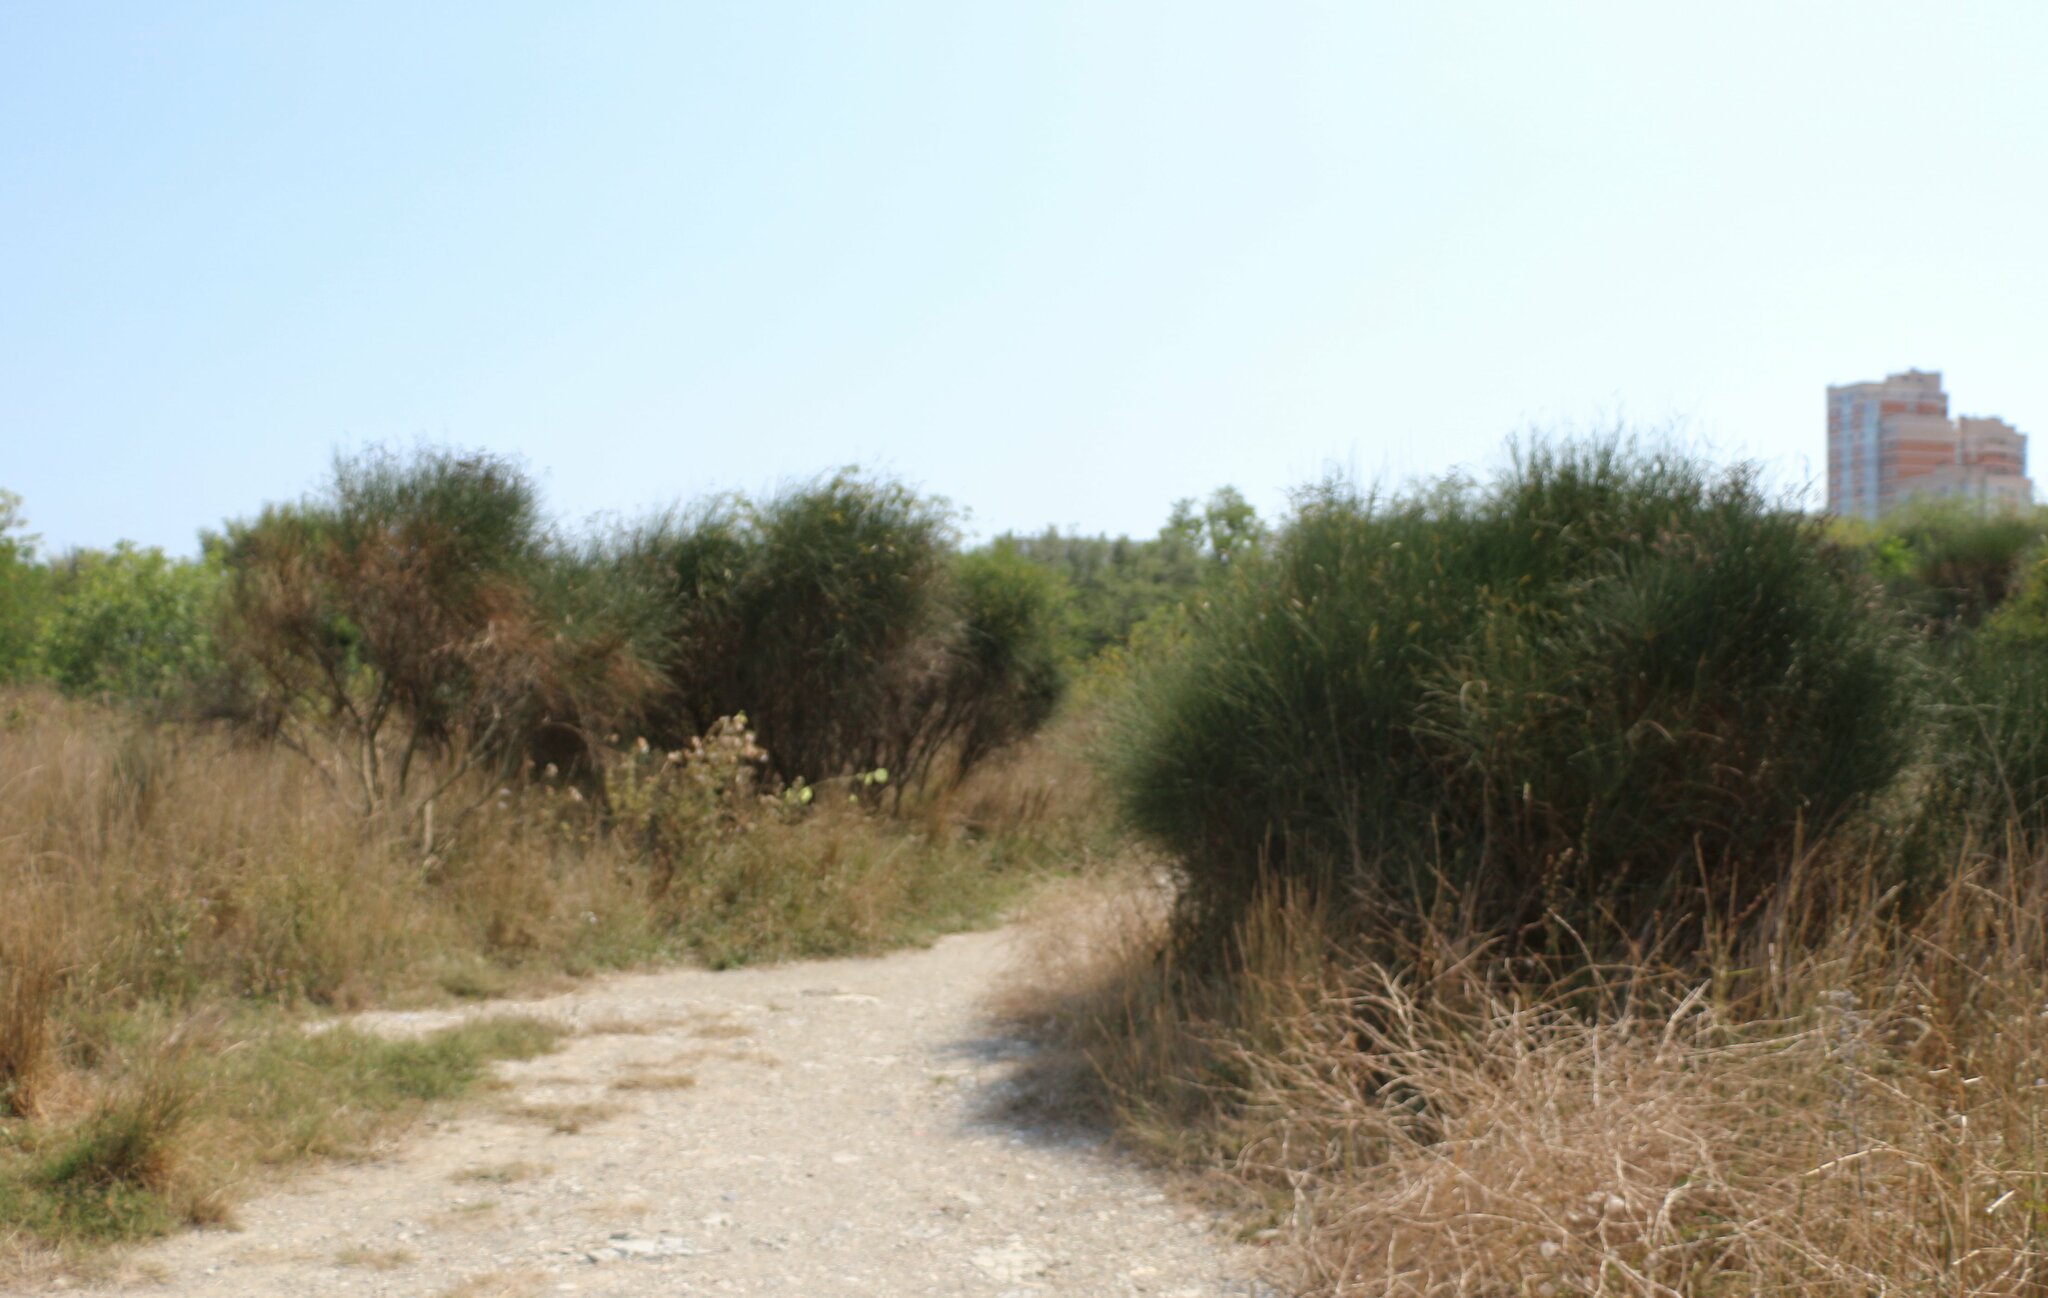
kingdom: Plantae
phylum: Tracheophyta
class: Magnoliopsida
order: Fabales
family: Fabaceae
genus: Spartium
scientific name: Spartium junceum
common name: Spanish broom
